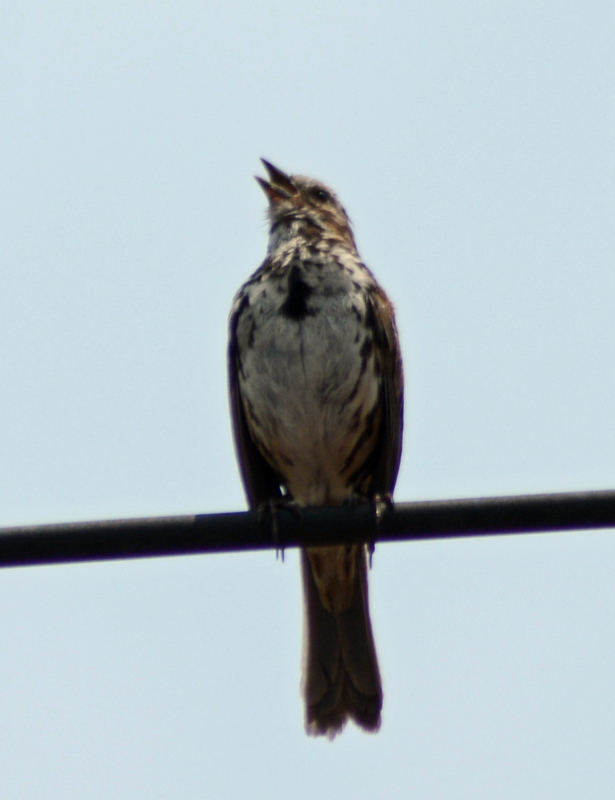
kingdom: Animalia
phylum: Chordata
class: Aves
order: Passeriformes
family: Passerellidae
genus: Melospiza
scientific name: Melospiza melodia
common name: Song sparrow
